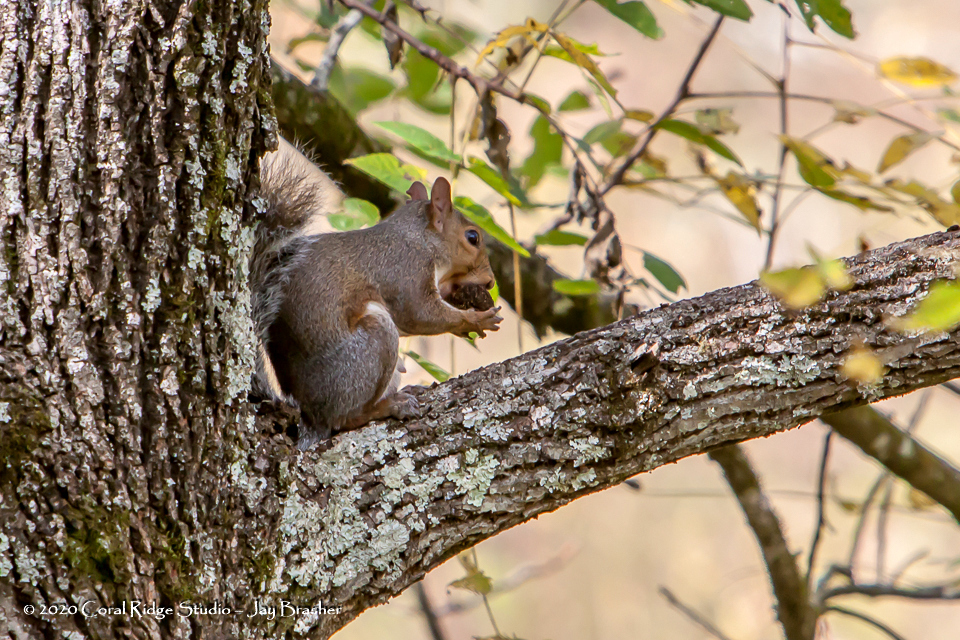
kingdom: Animalia
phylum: Chordata
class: Mammalia
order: Rodentia
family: Sciuridae
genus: Sciurus
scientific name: Sciurus carolinensis
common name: Eastern gray squirrel
